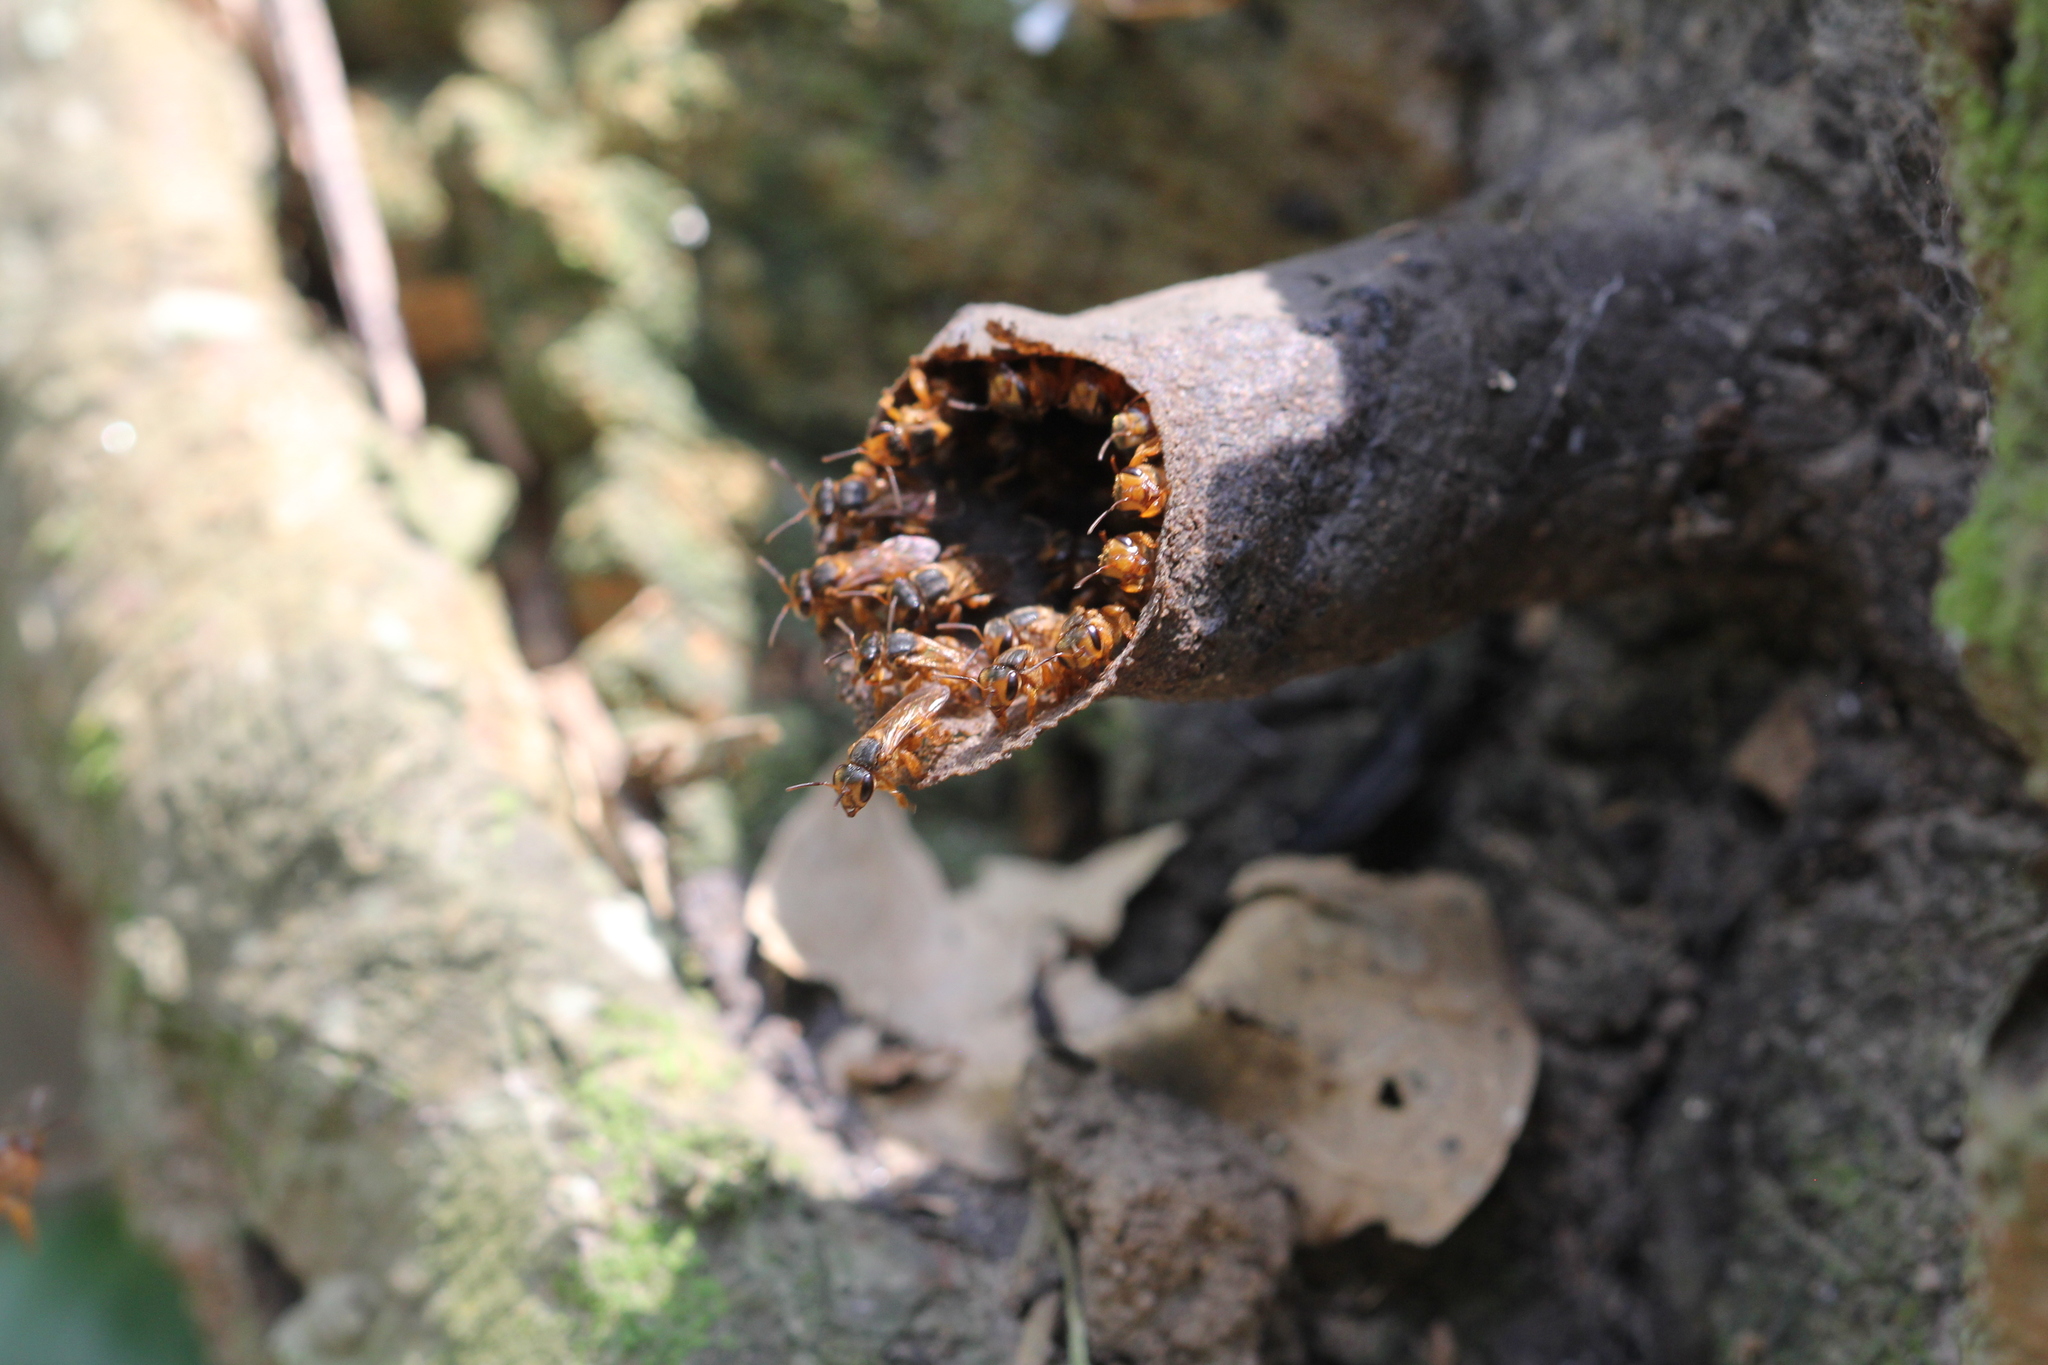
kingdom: Animalia
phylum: Arthropoda
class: Insecta
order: Hymenoptera
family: Apidae
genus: Scaptotrigona
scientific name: Scaptotrigona pectoralis
